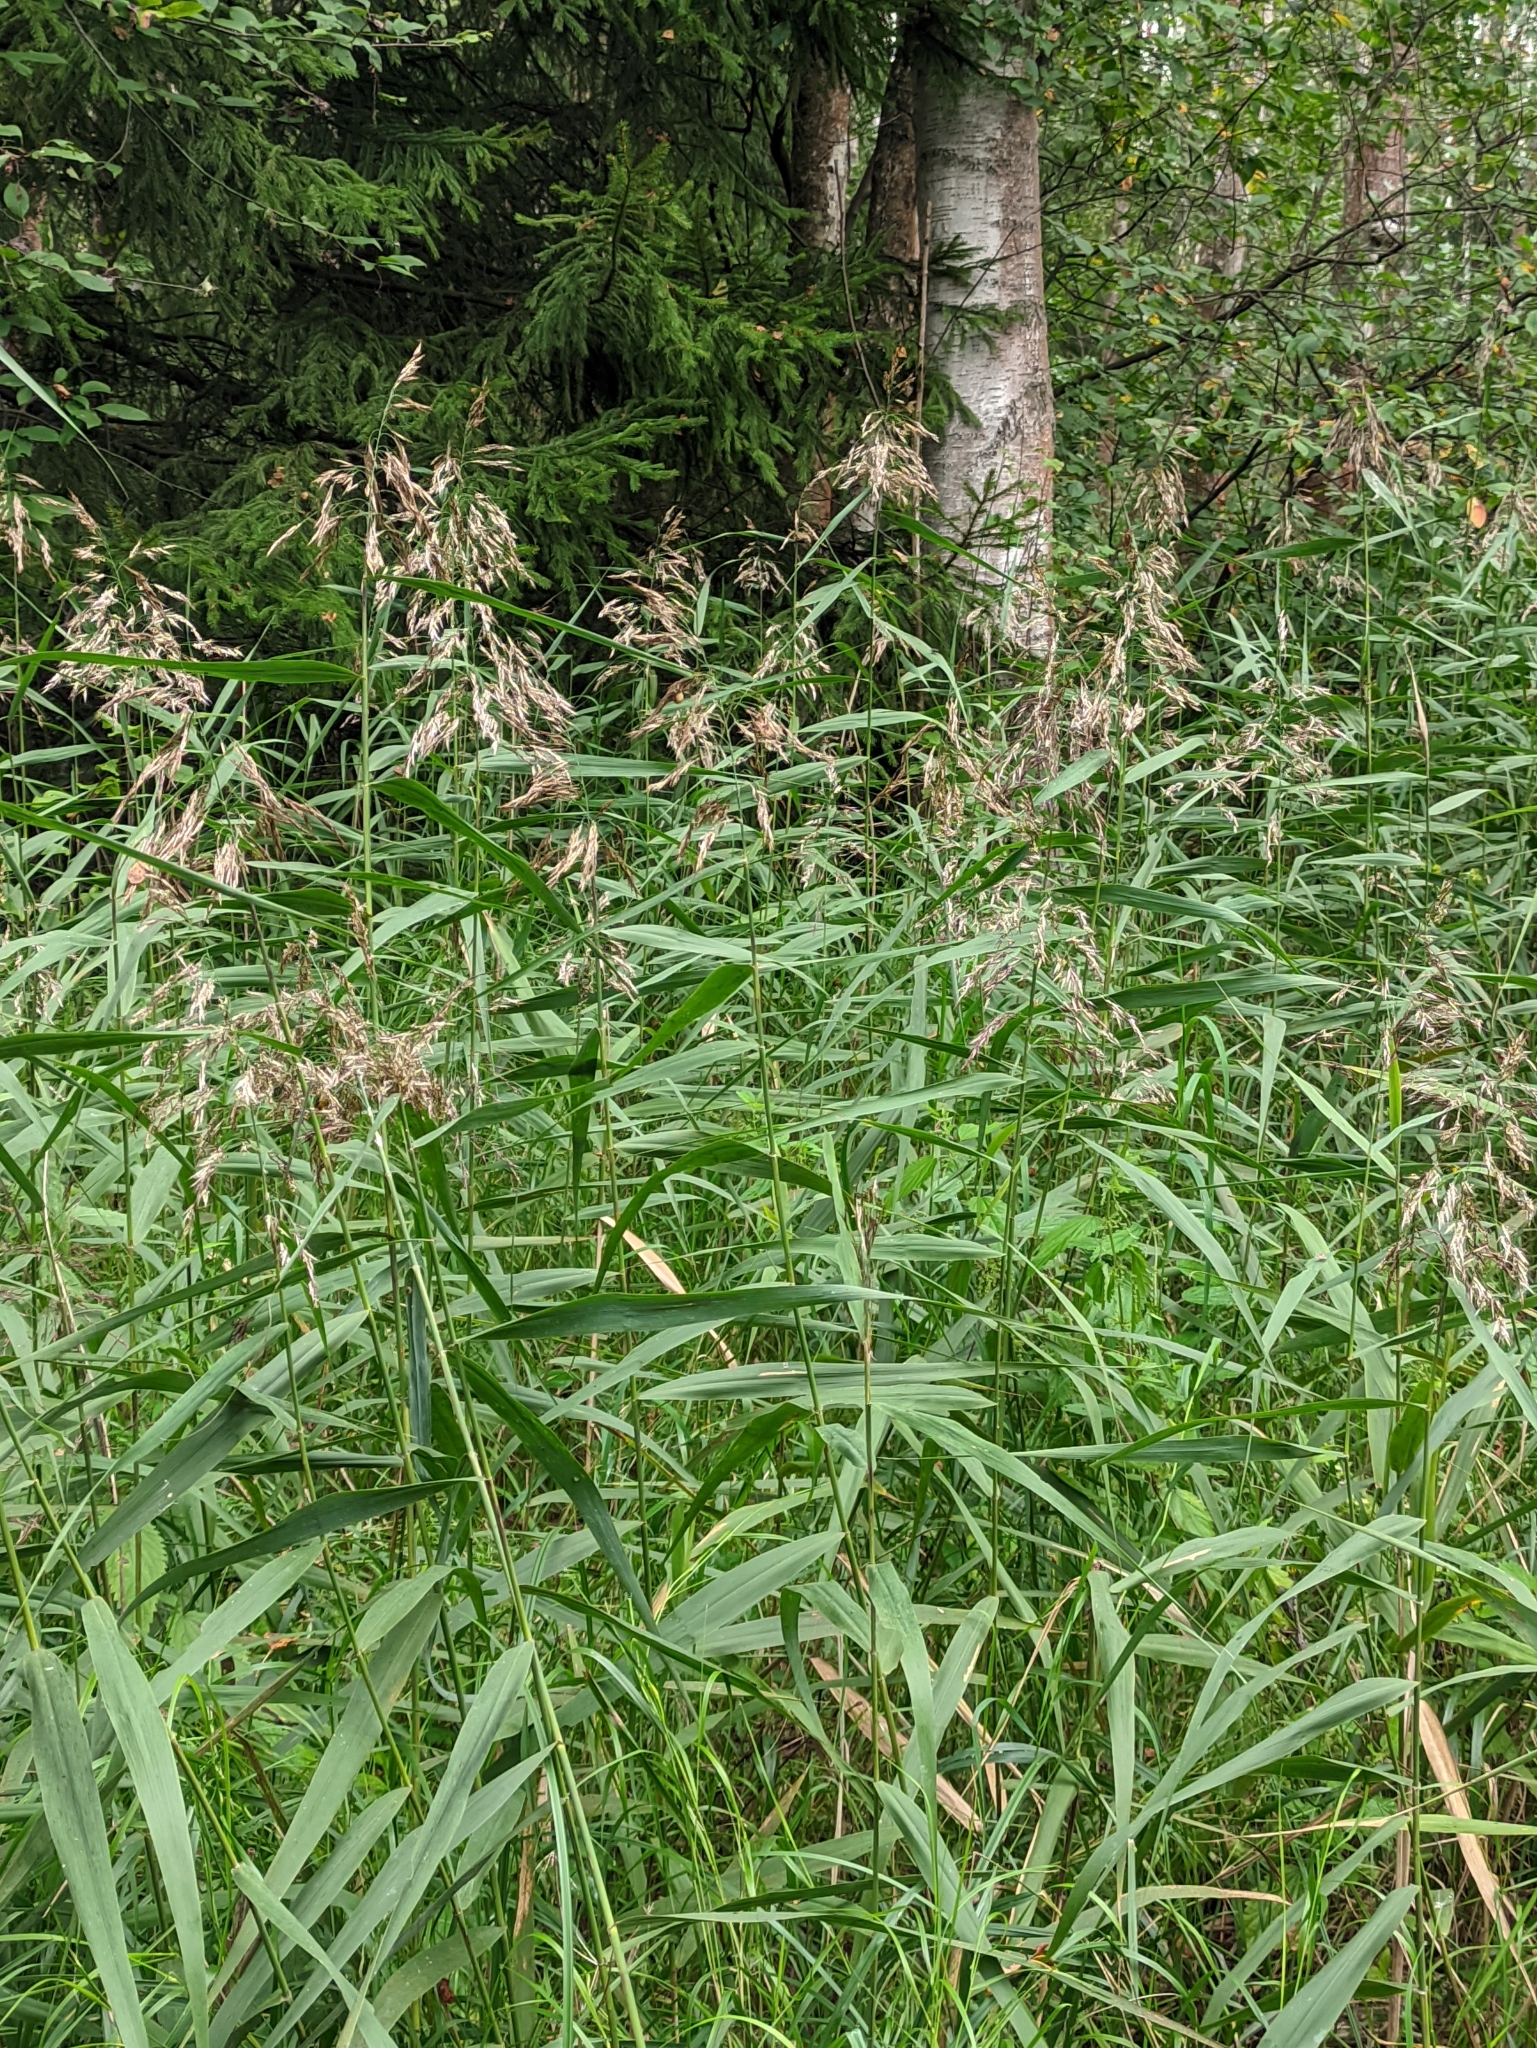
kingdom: Plantae
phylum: Tracheophyta
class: Liliopsida
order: Poales
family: Poaceae
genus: Phragmites
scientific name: Phragmites australis
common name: Common reed
